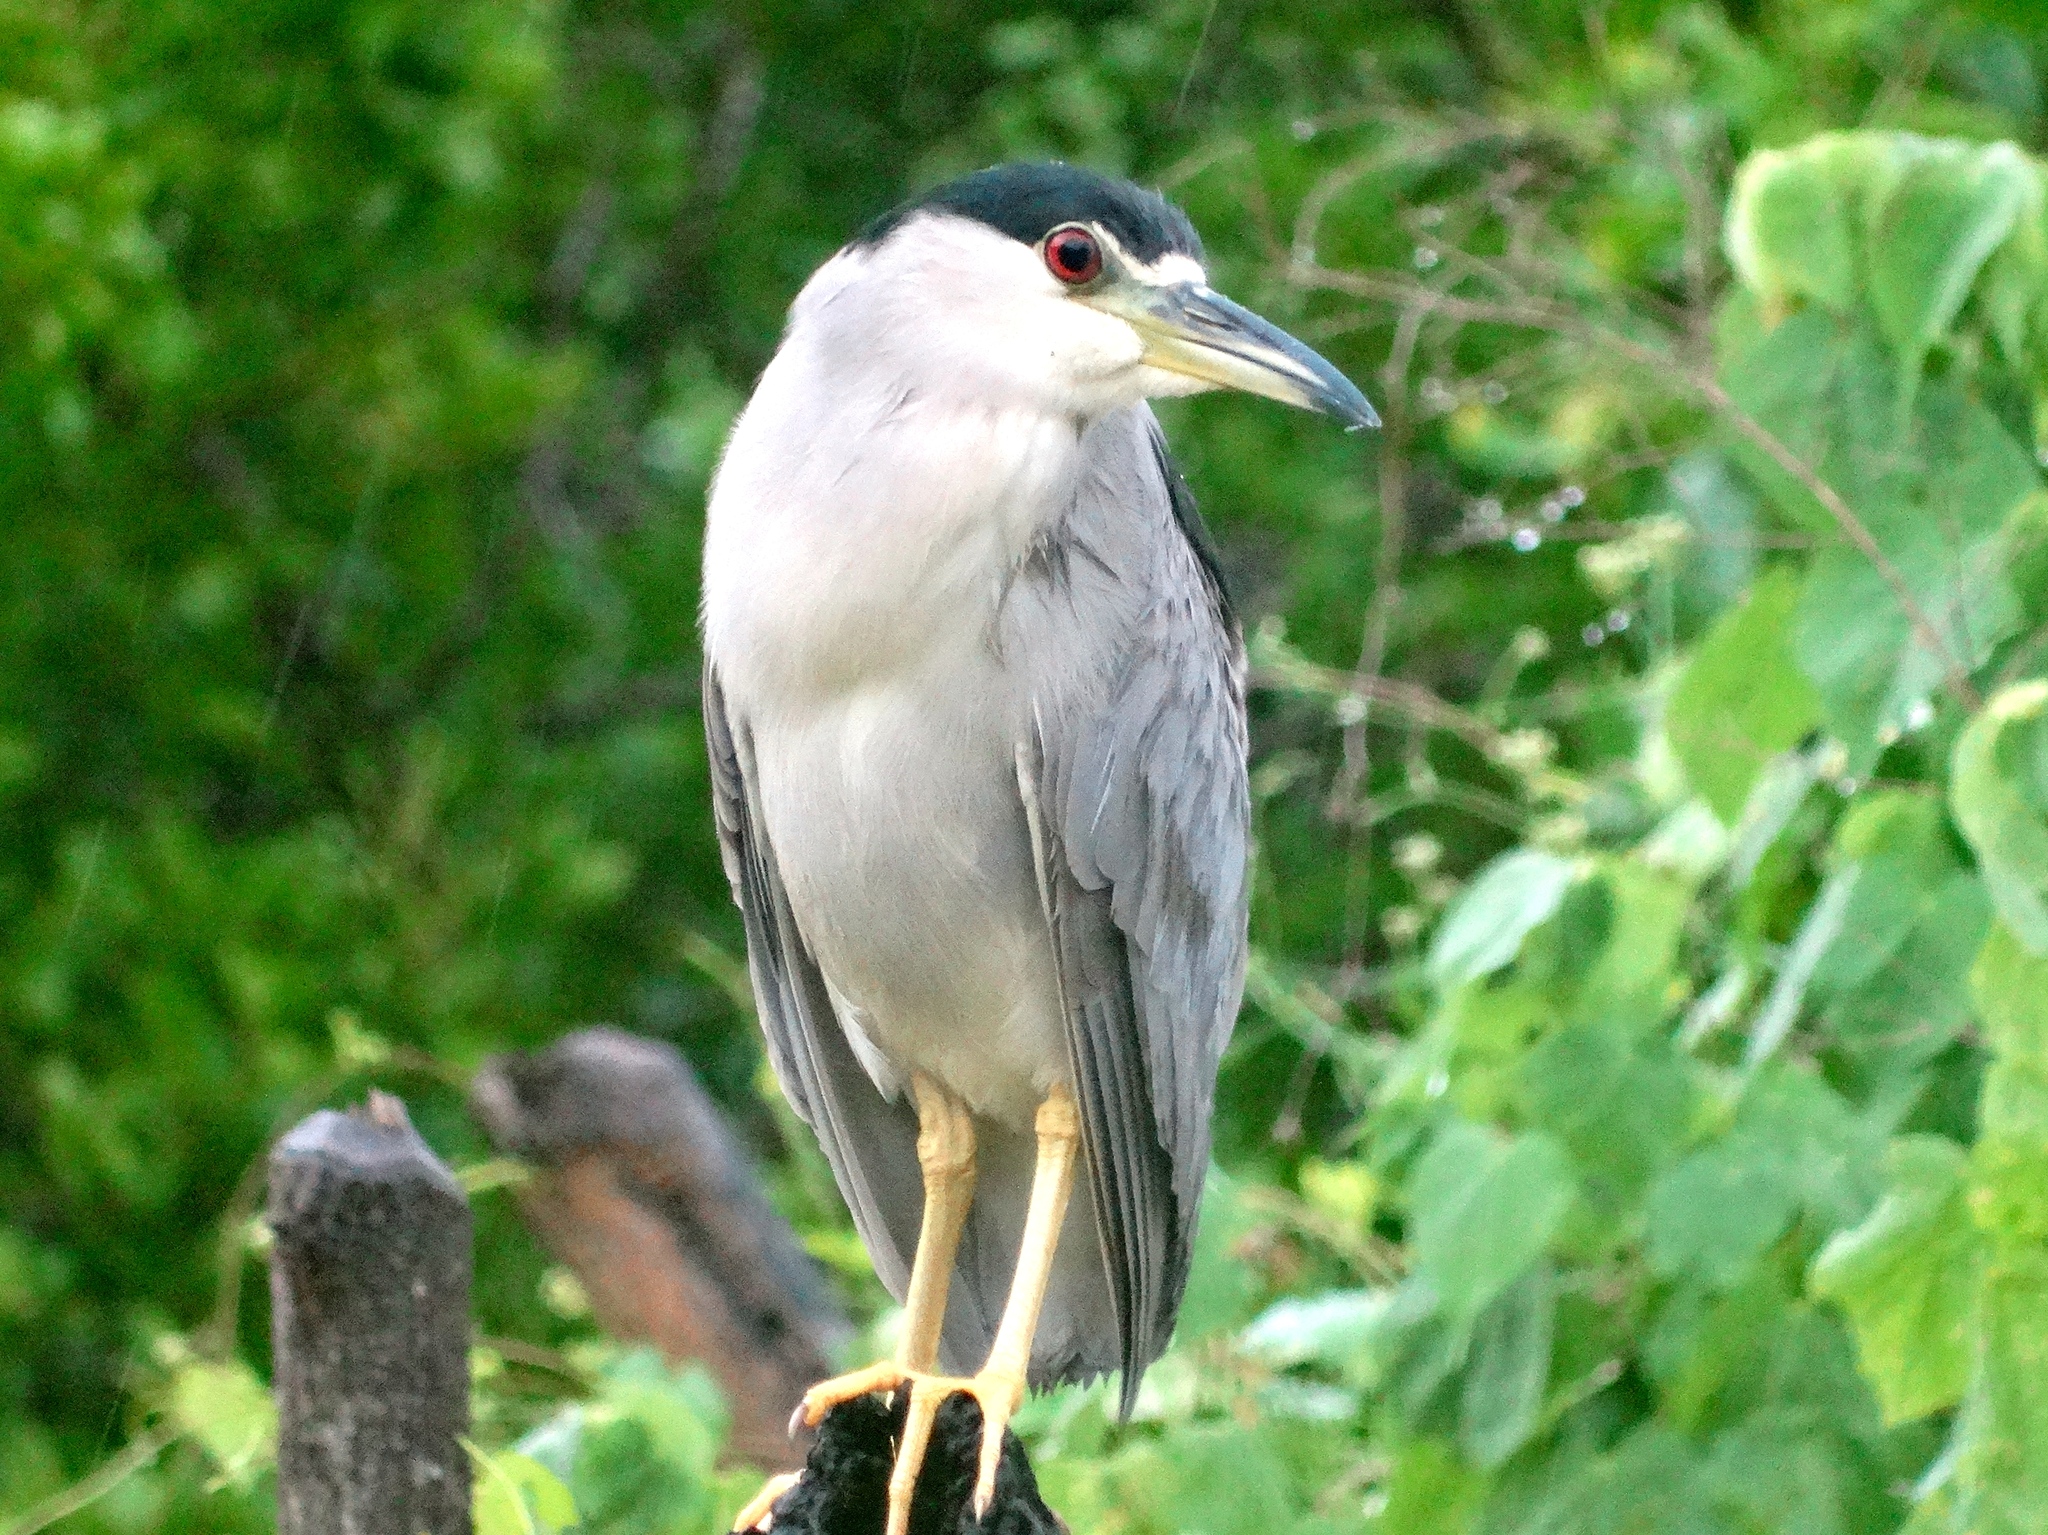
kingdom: Animalia
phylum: Chordata
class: Aves
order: Pelecaniformes
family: Ardeidae
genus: Nycticorax
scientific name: Nycticorax nycticorax
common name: Black-crowned night heron
